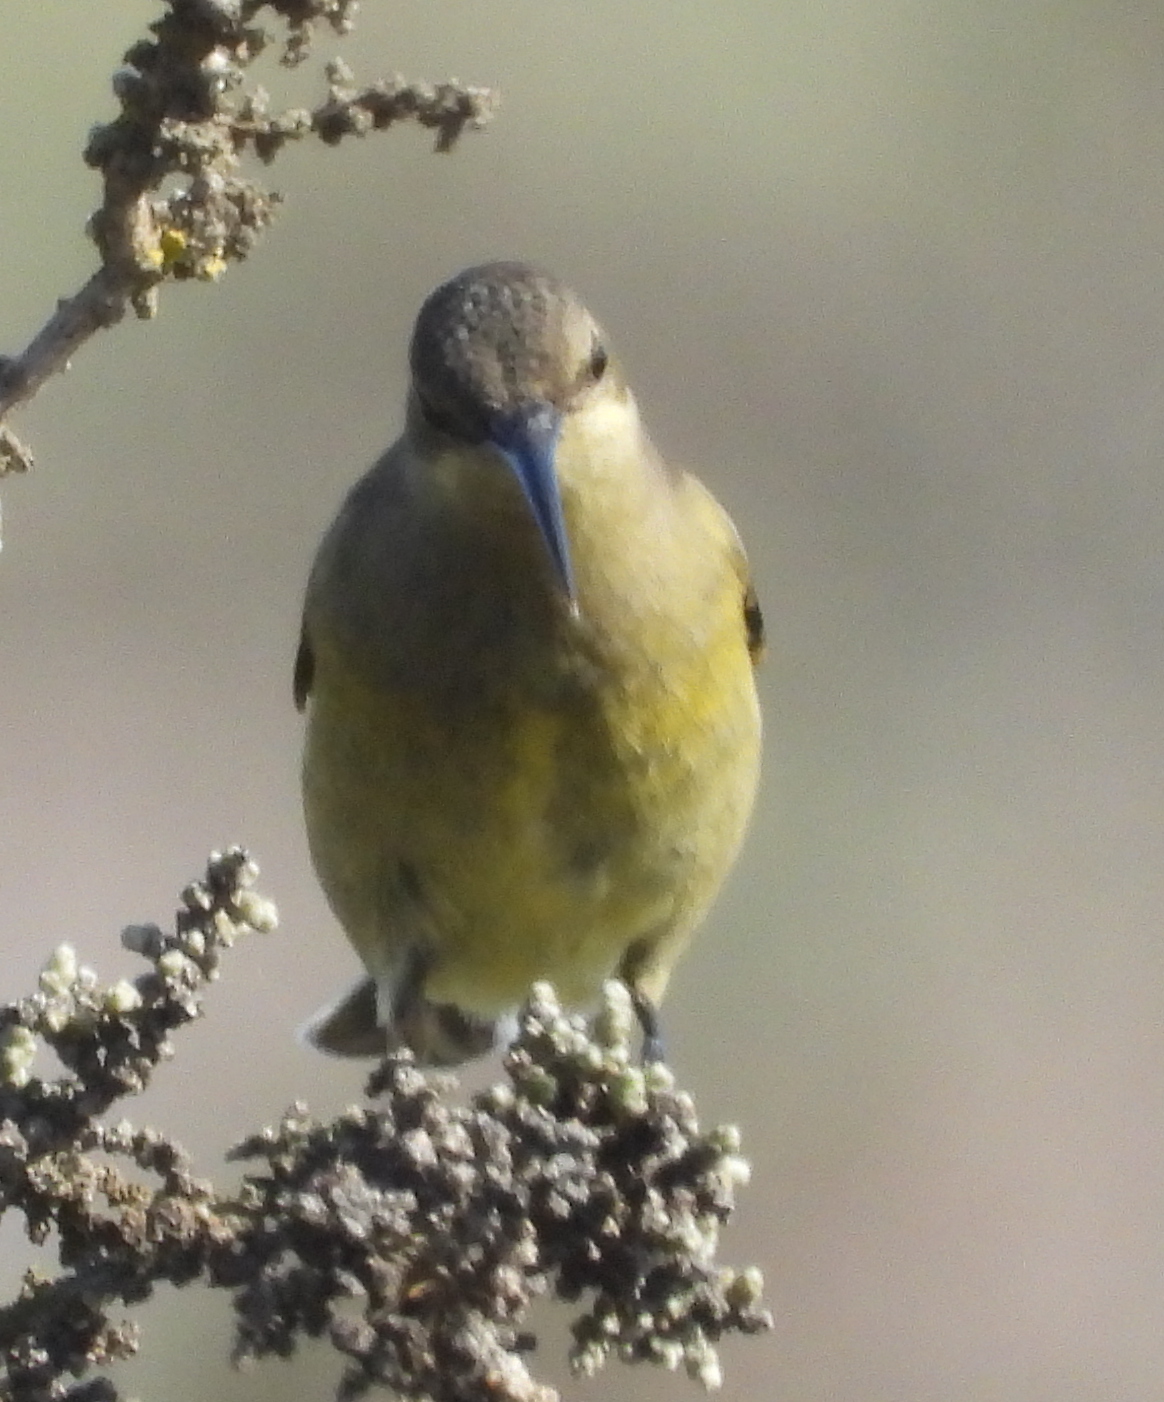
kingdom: Animalia
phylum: Chordata
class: Aves
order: Passeriformes
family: Nectariniidae
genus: Nectarinia
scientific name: Nectarinia famosa
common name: Malachite sunbird
